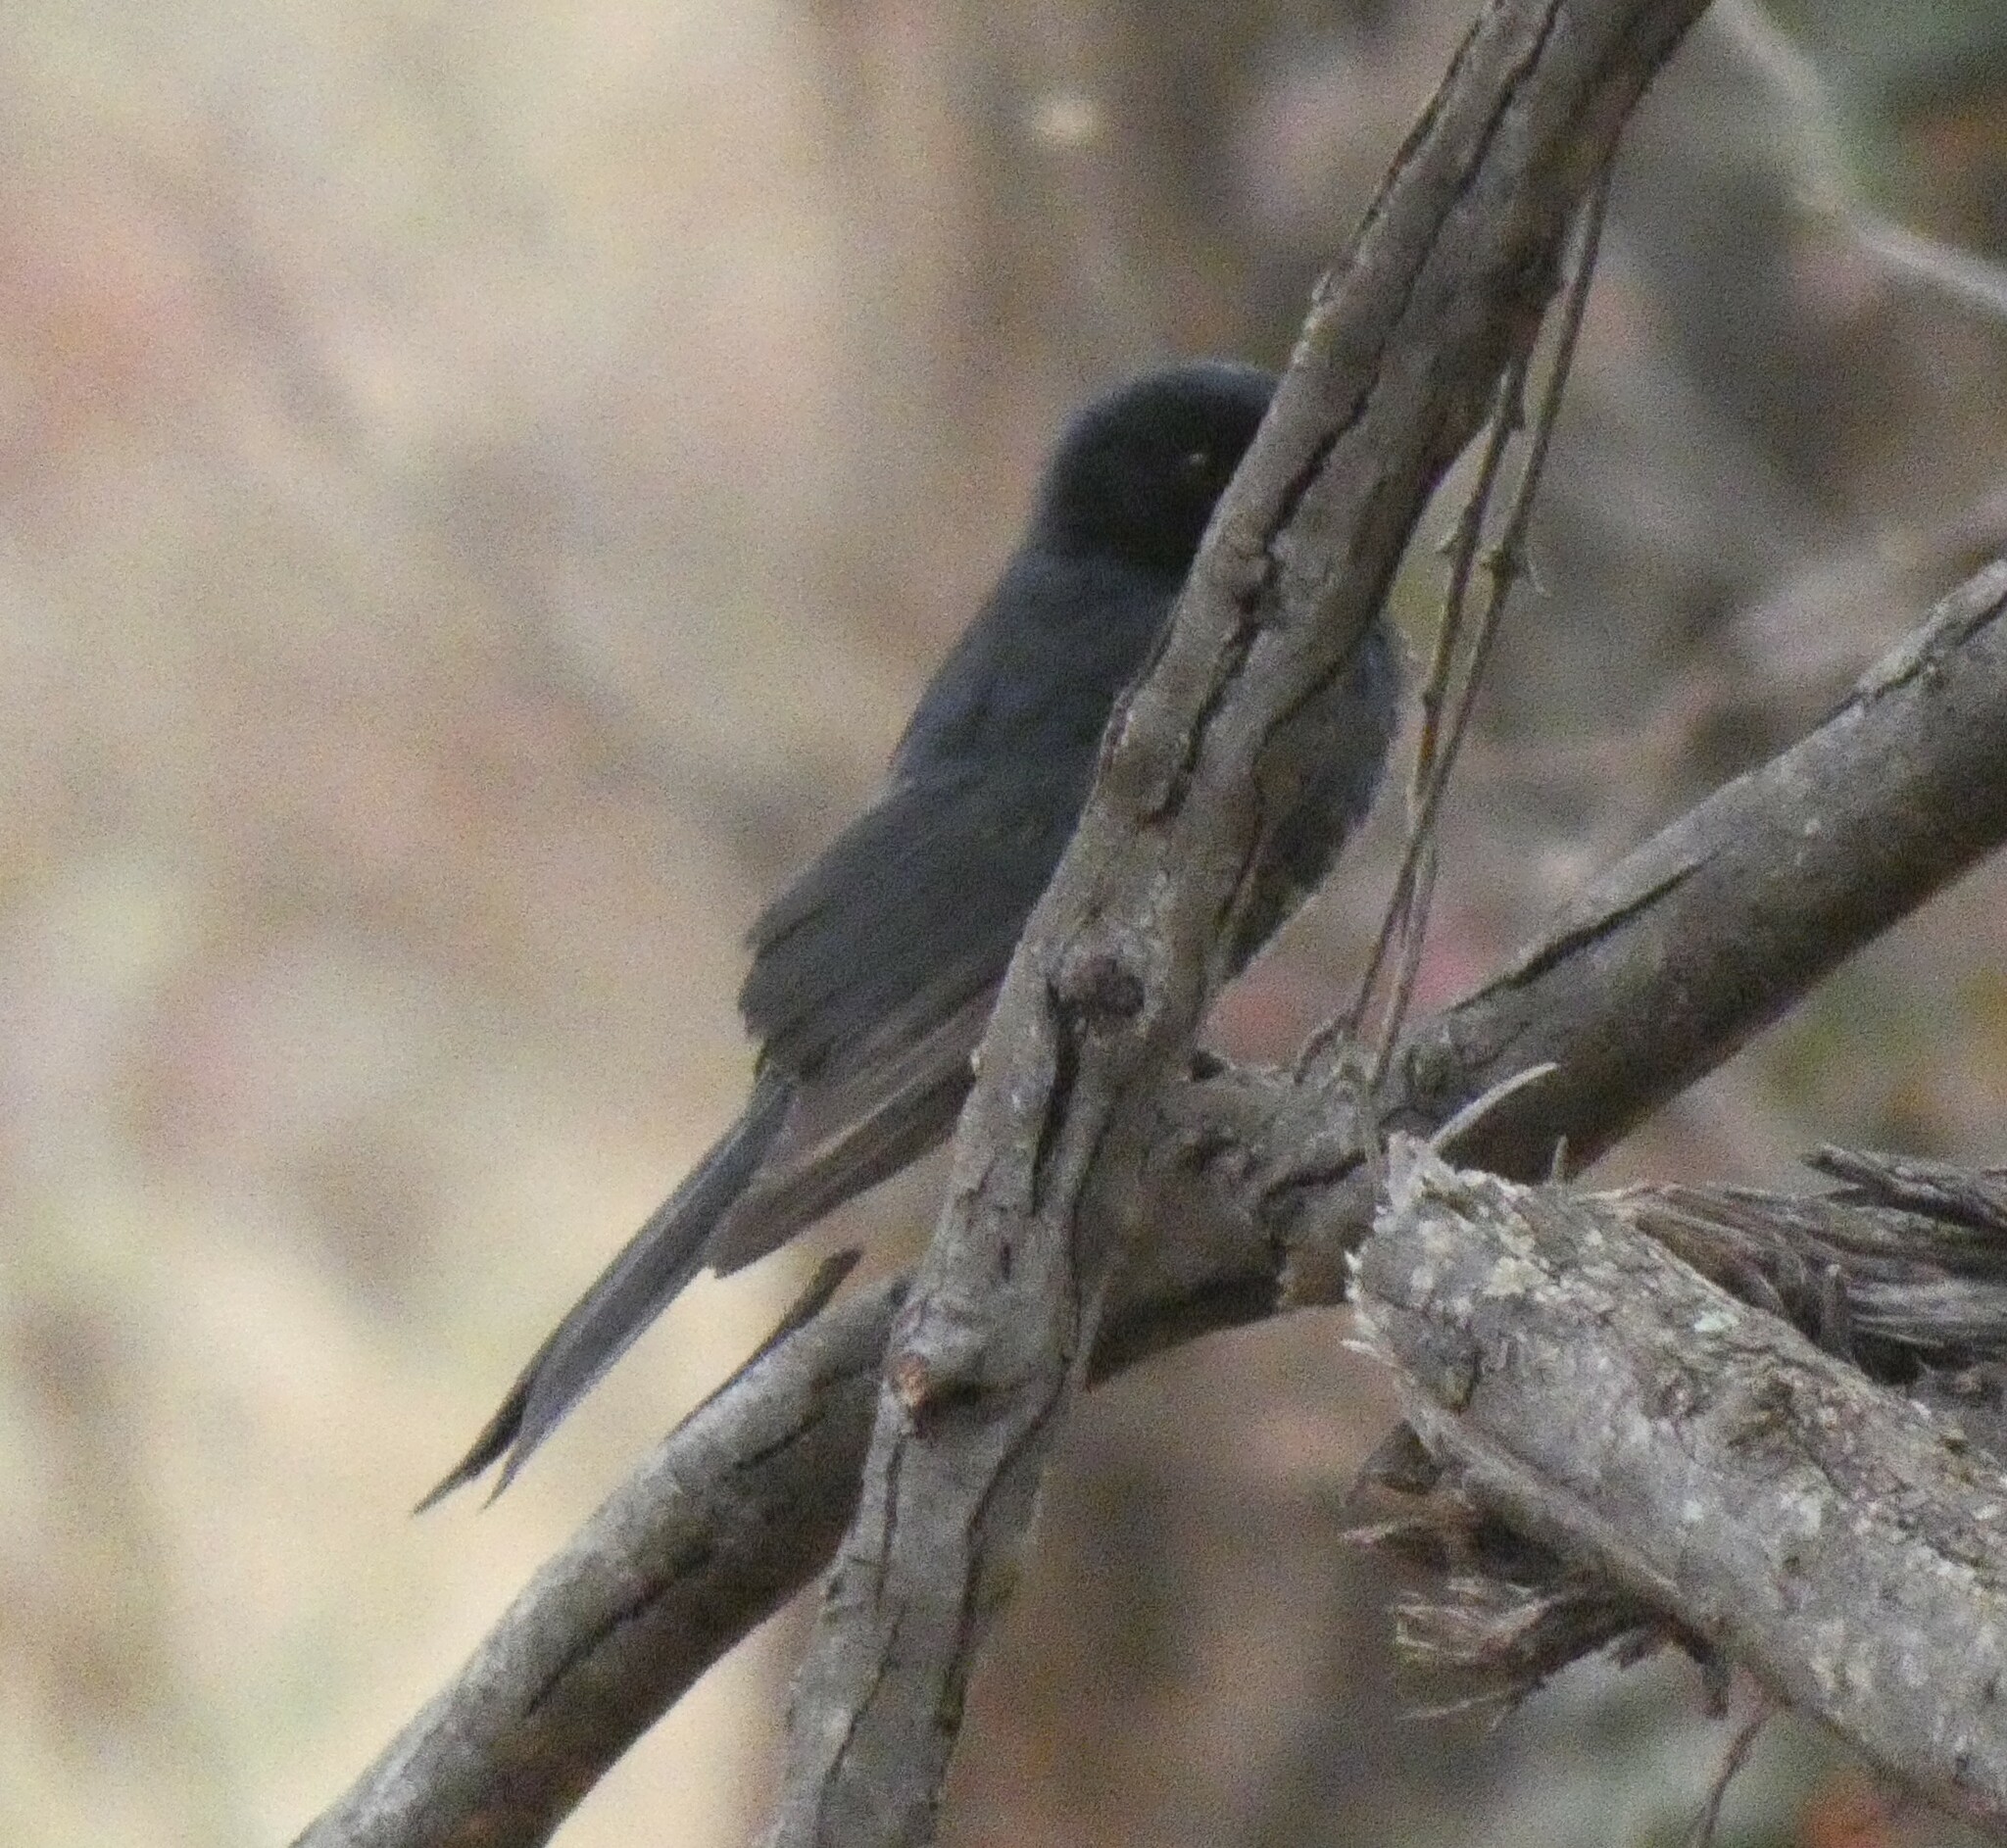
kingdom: Animalia
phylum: Chordata
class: Aves
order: Passeriformes
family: Muscicapidae
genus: Melaenornis
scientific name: Melaenornis pammelaina
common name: Southern black flycatcher
